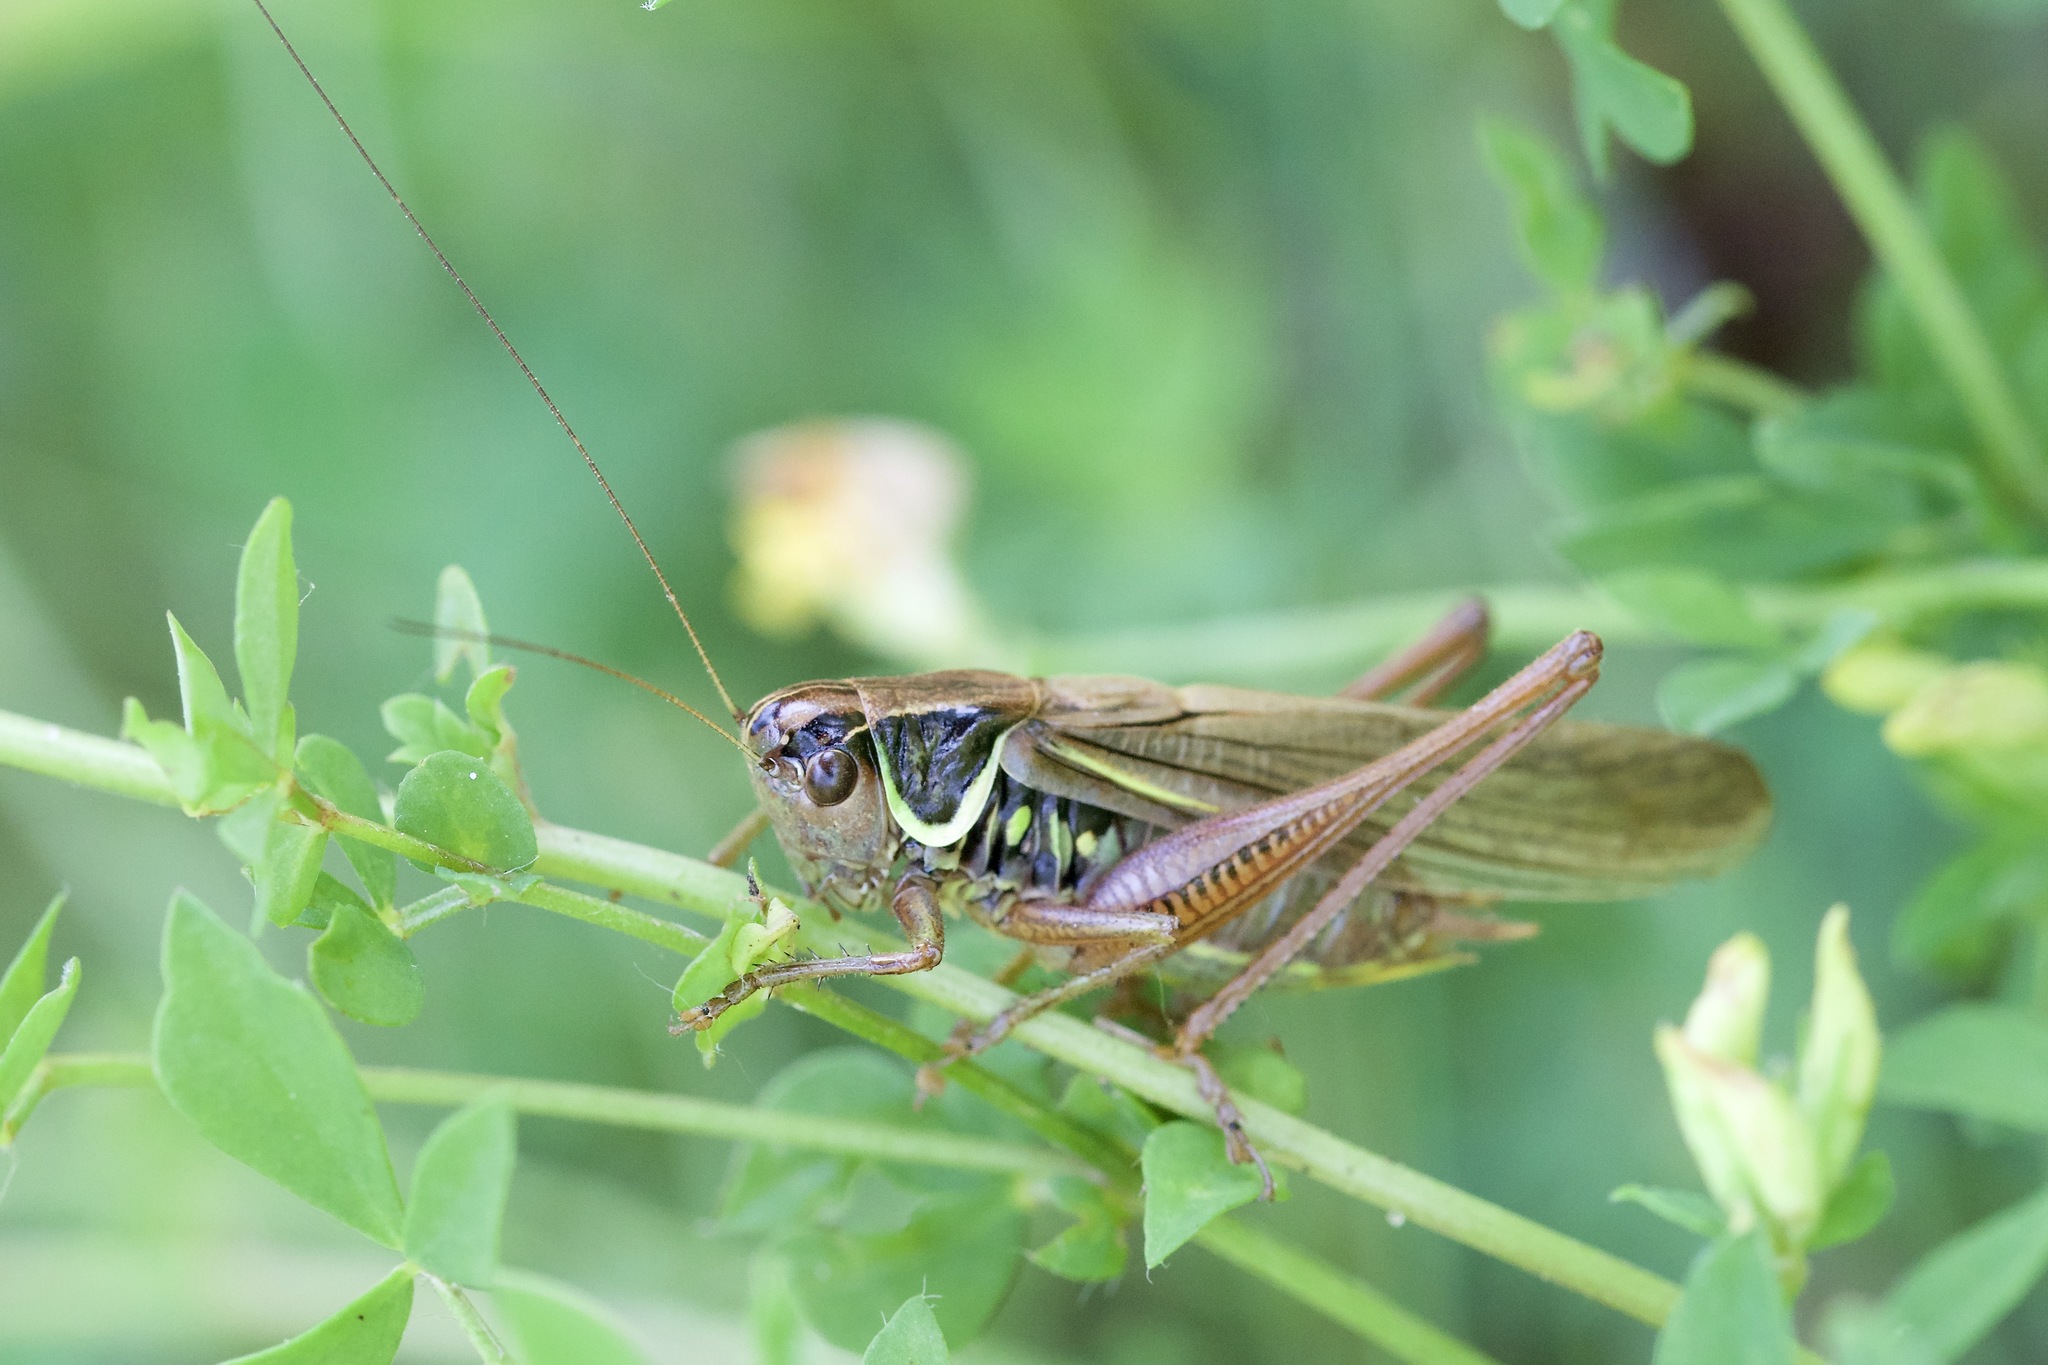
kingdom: Animalia
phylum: Arthropoda
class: Insecta
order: Orthoptera
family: Tettigoniidae
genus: Roeseliana
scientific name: Roeseliana roeselii
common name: Roesel's bush cricket
